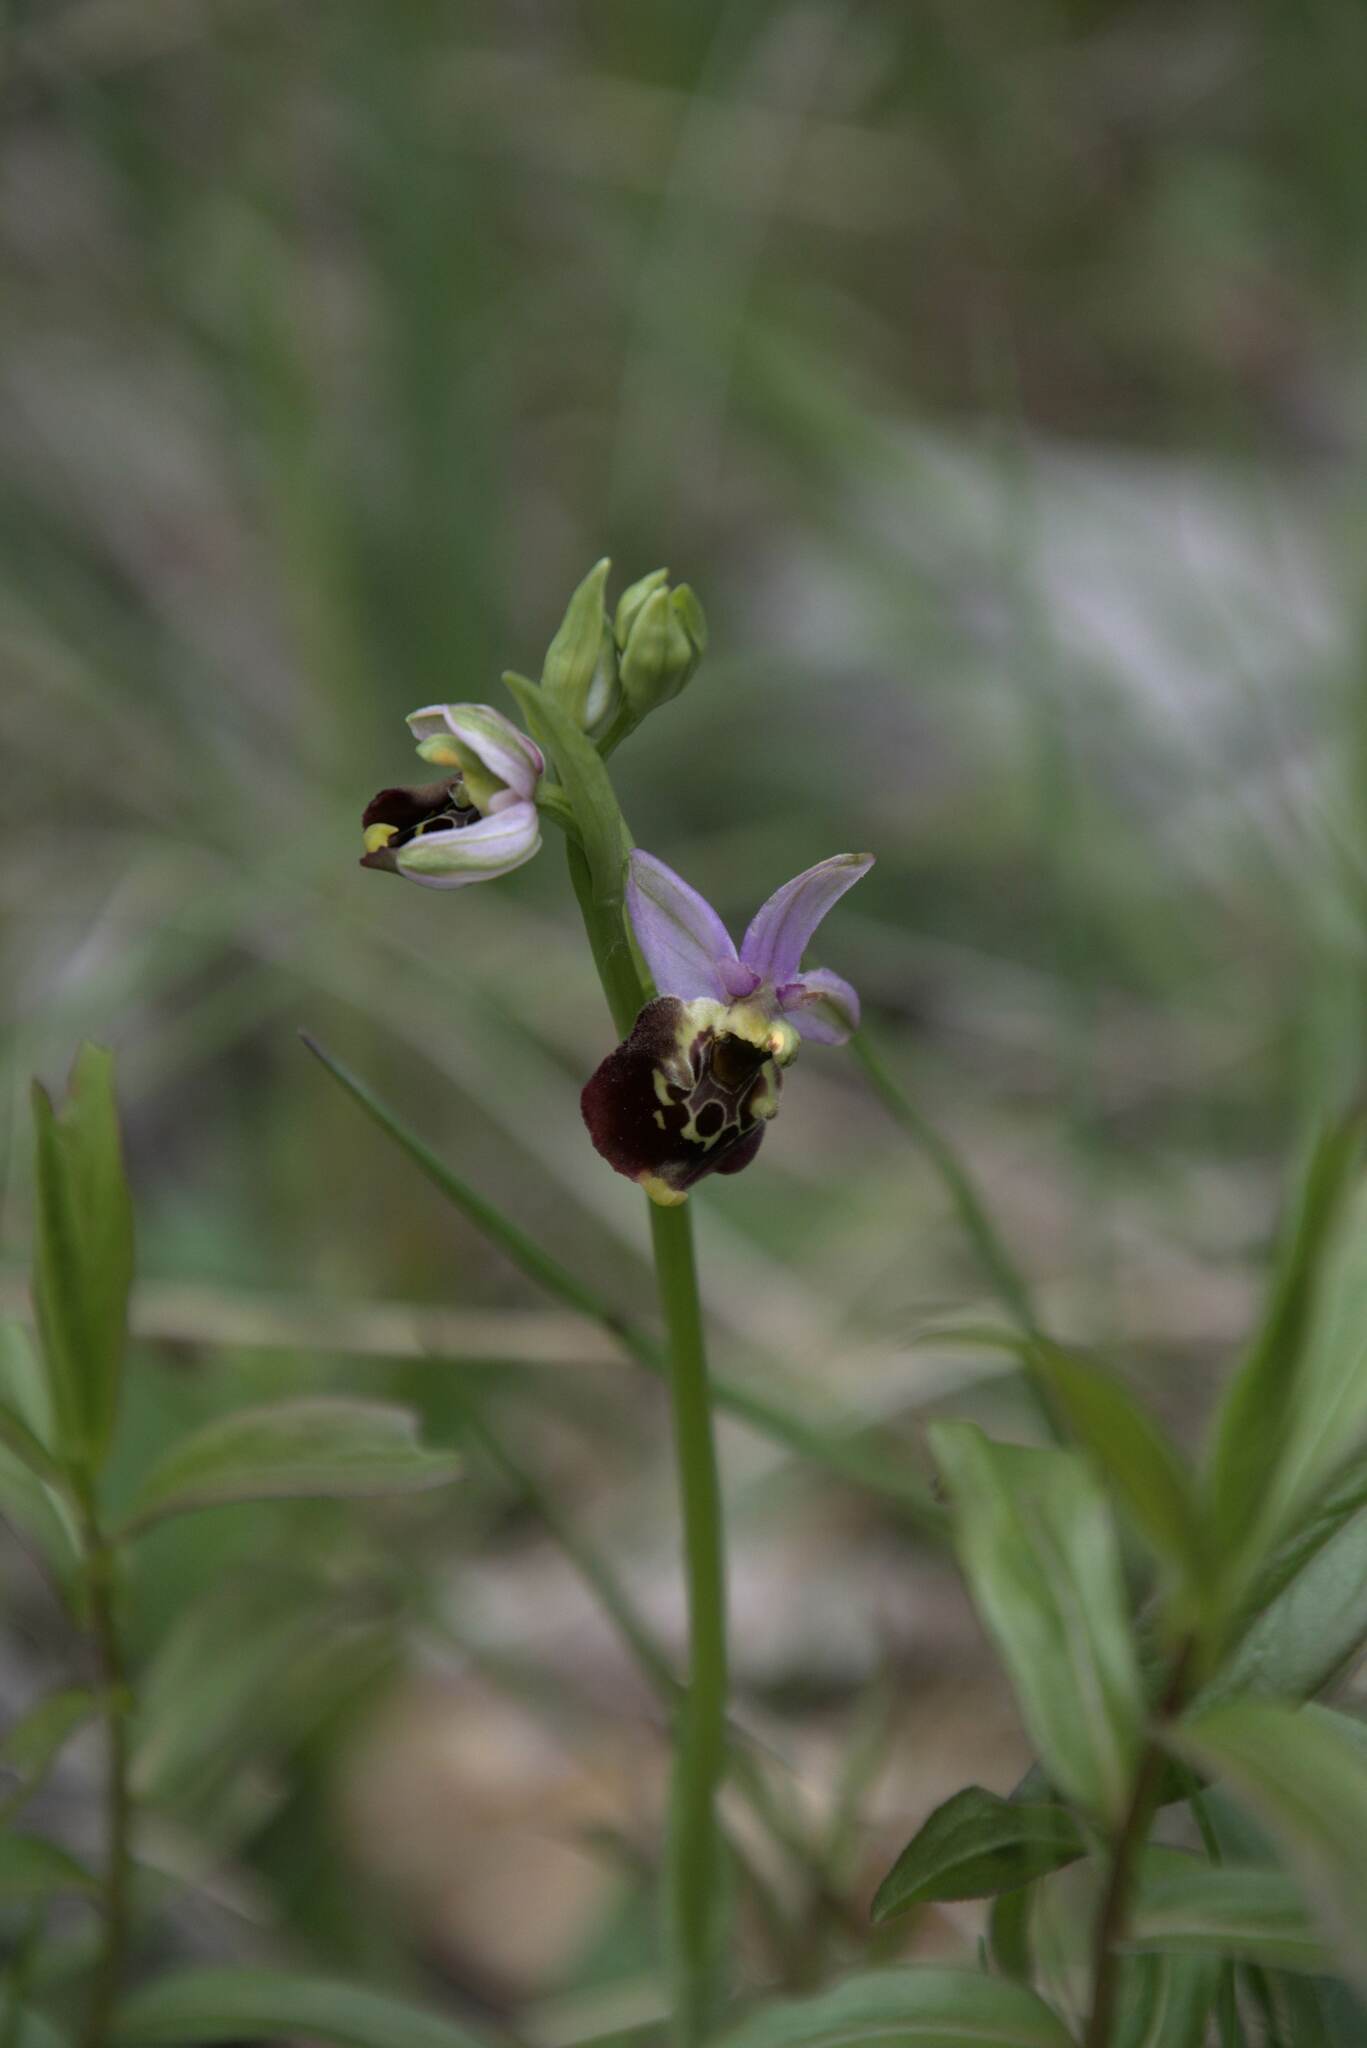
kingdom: Plantae
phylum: Tracheophyta
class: Liliopsida
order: Asparagales
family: Orchidaceae
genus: Ophrys
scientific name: Ophrys holosericea
